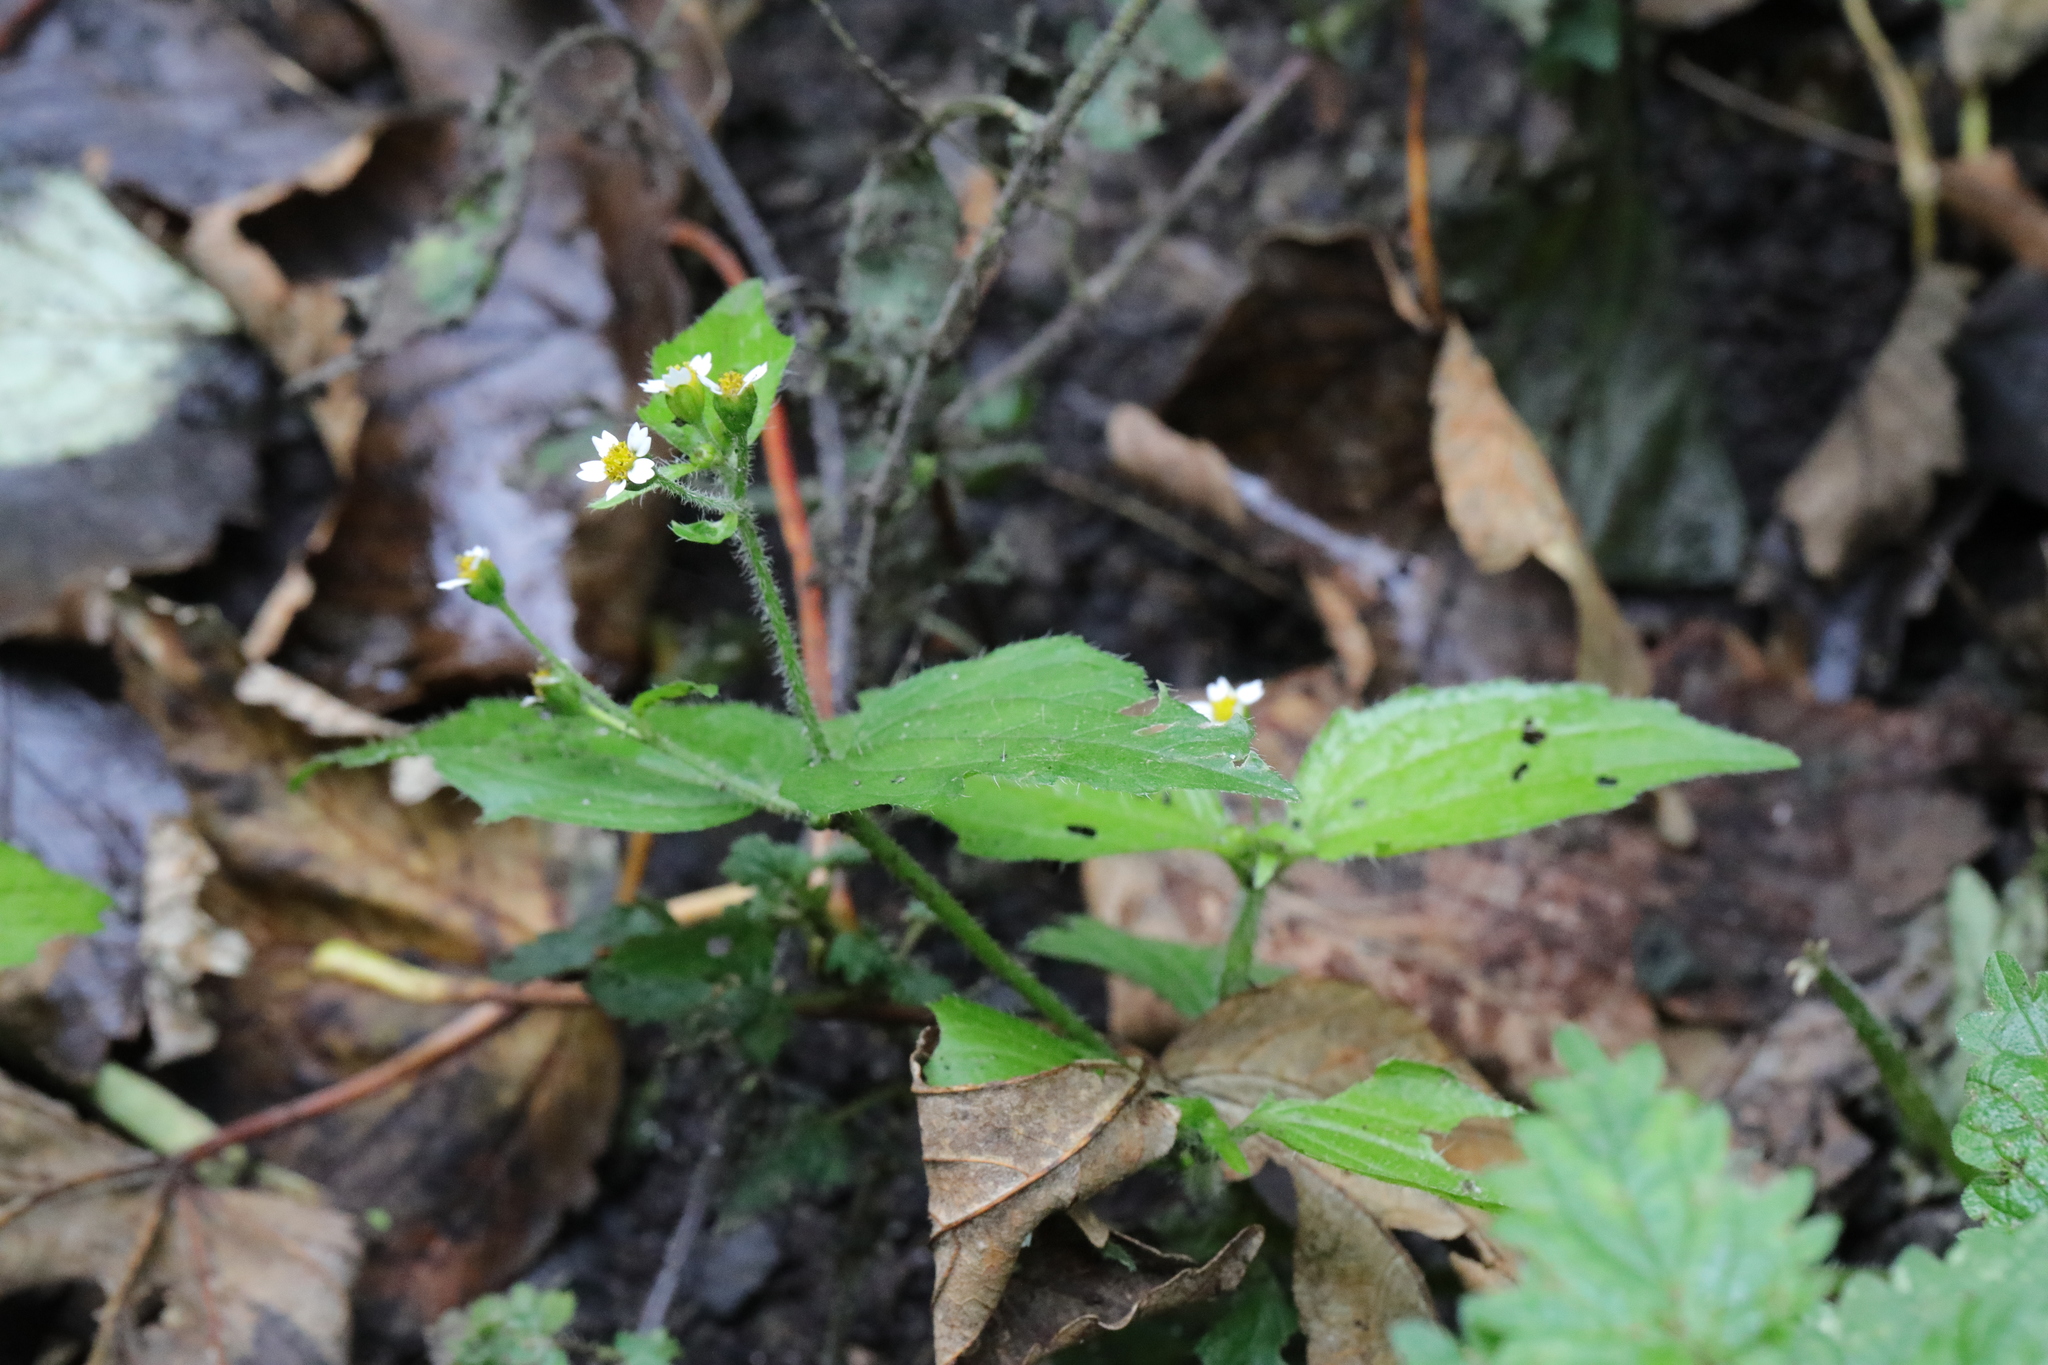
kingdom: Plantae
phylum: Tracheophyta
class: Magnoliopsida
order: Asterales
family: Asteraceae
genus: Galinsoga
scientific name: Galinsoga quadriradiata
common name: Shaggy soldier
